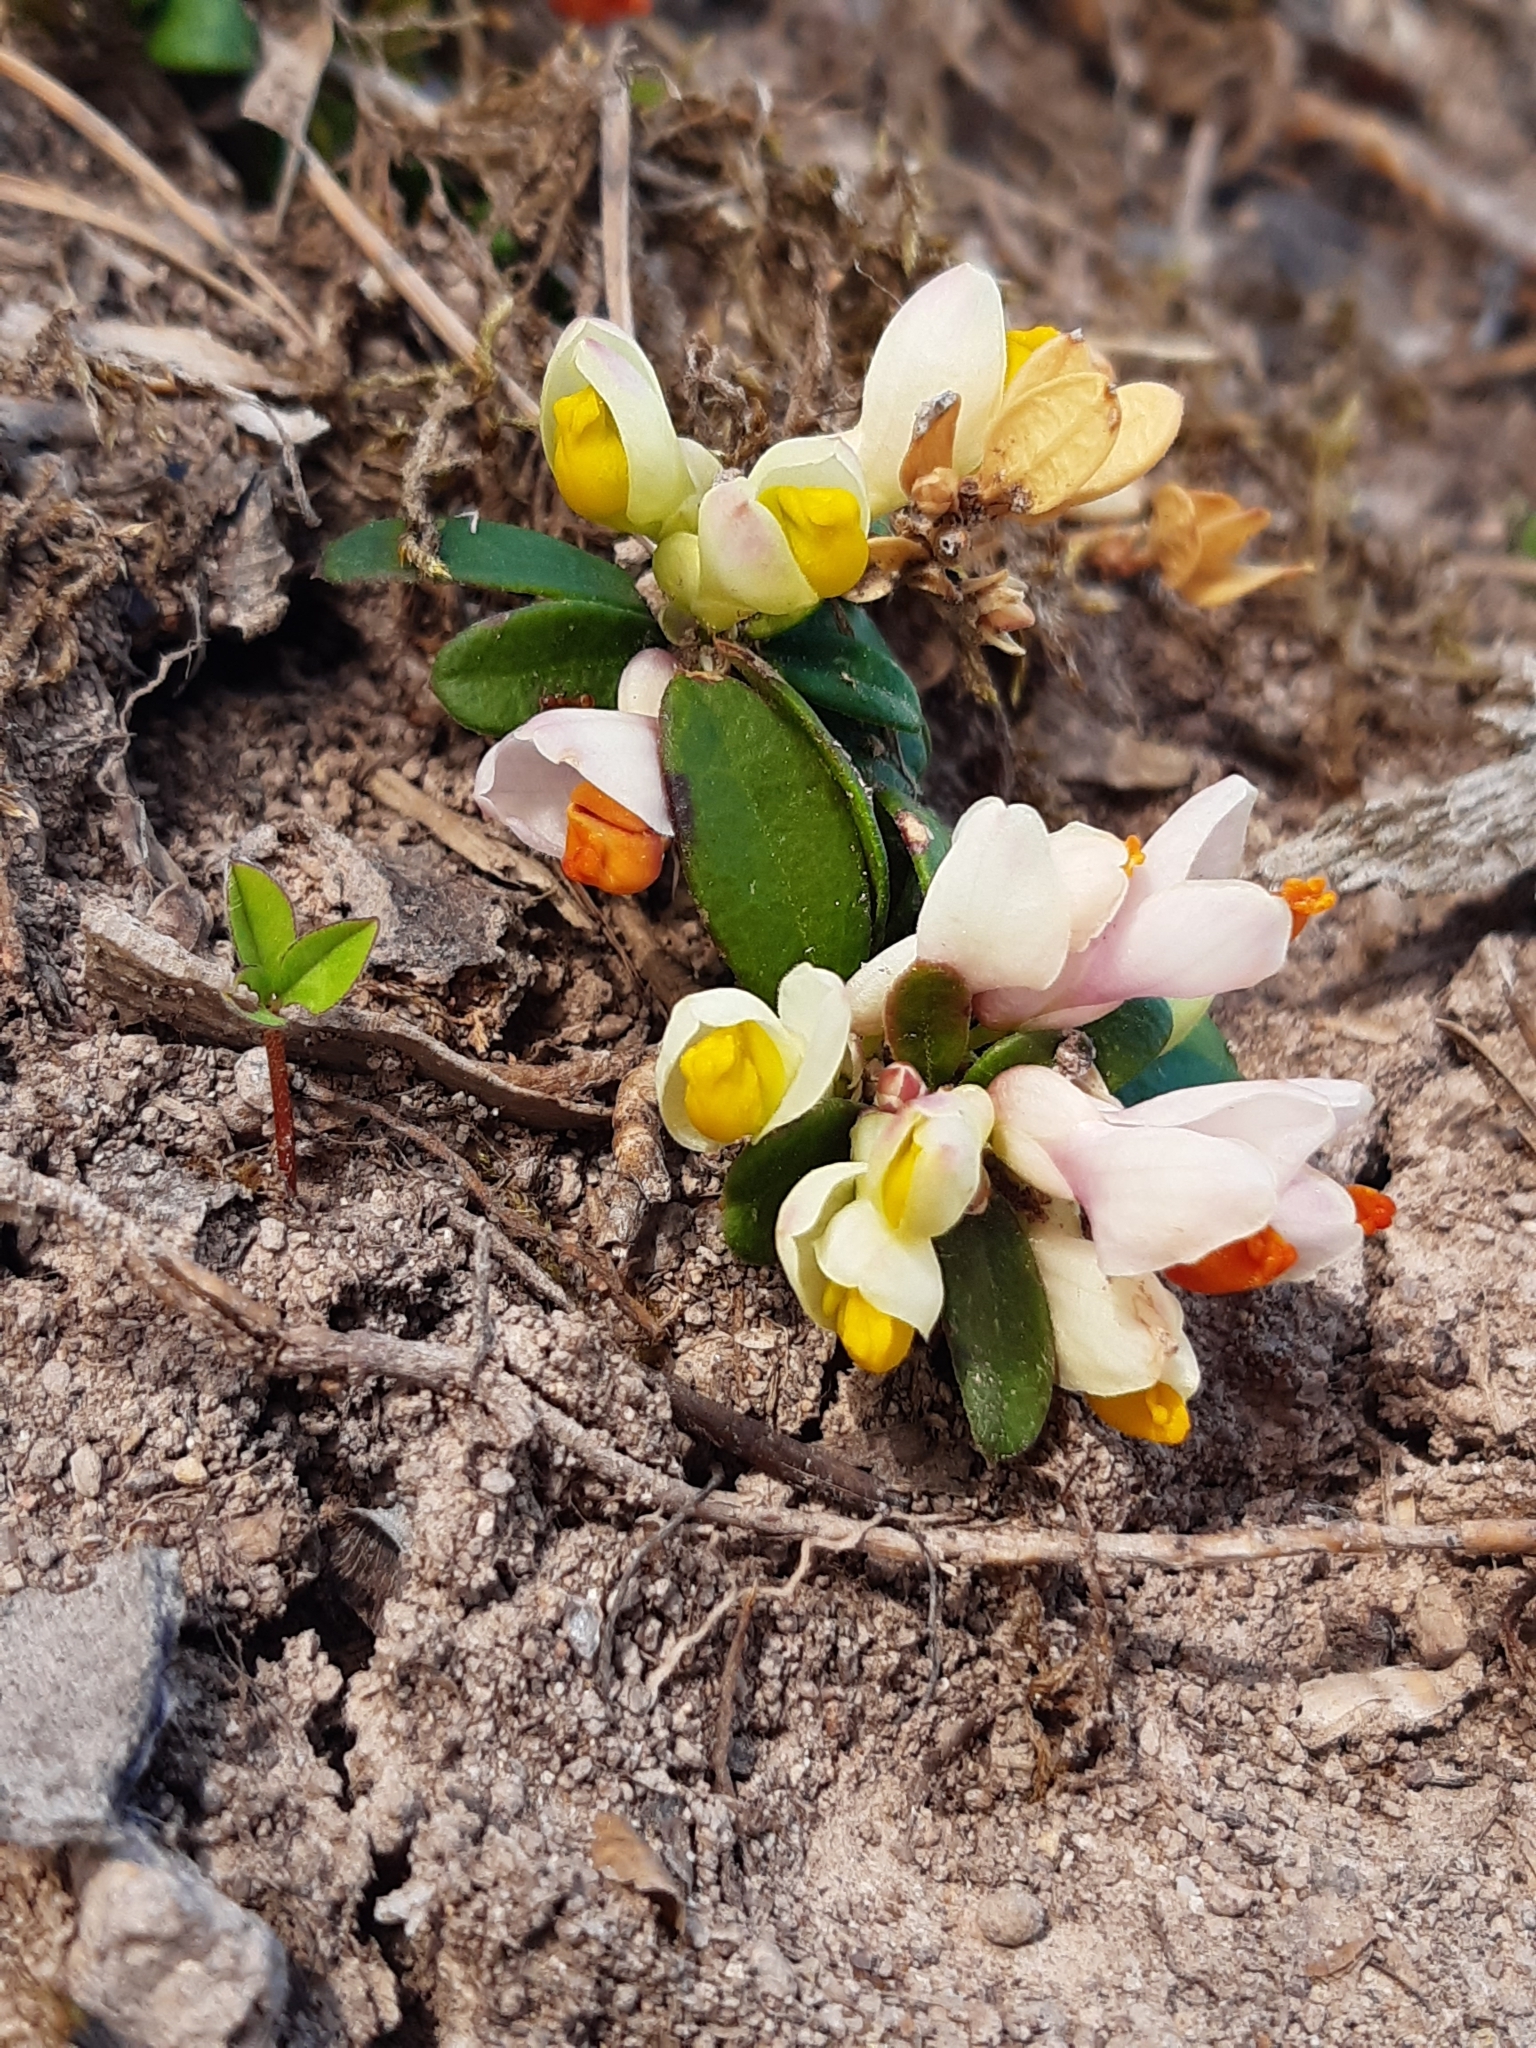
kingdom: Plantae
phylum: Tracheophyta
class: Magnoliopsida
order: Fabales
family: Polygalaceae
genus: Polygaloides
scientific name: Polygaloides chamaebuxus
